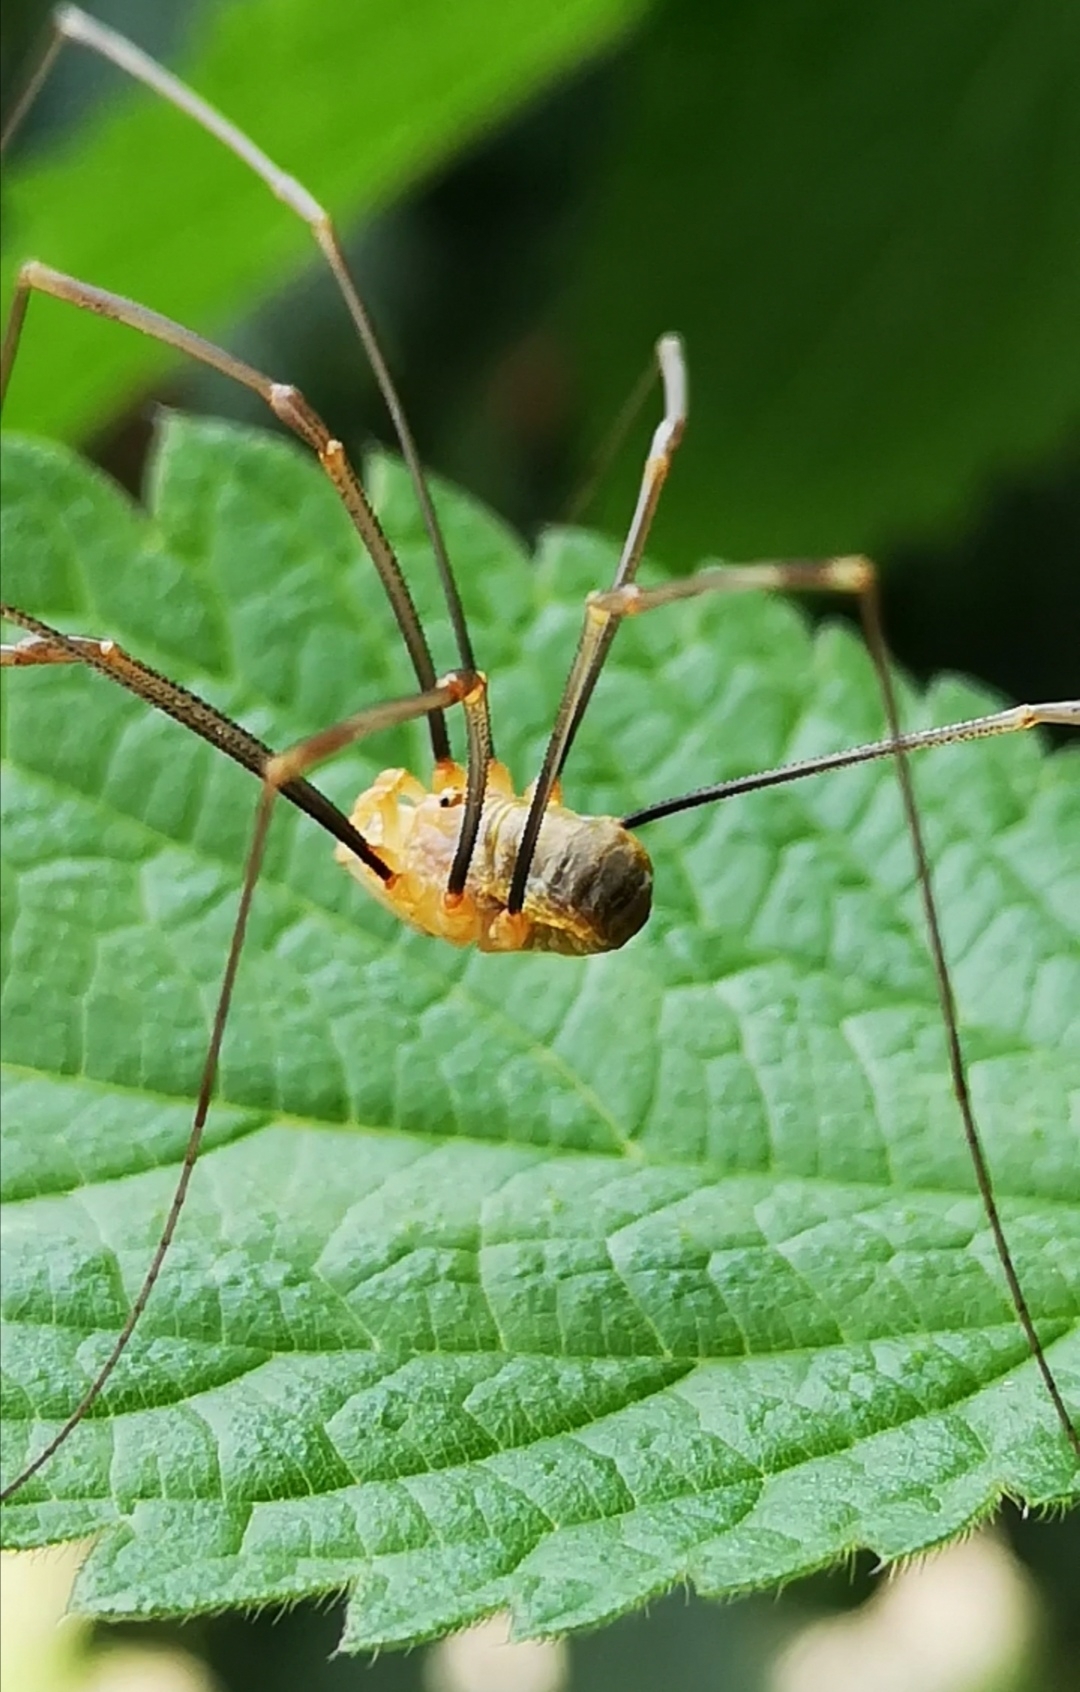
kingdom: Animalia
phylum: Arthropoda
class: Arachnida
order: Opiliones
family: Phalangiidae
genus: Opilio
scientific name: Opilio canestrinii
